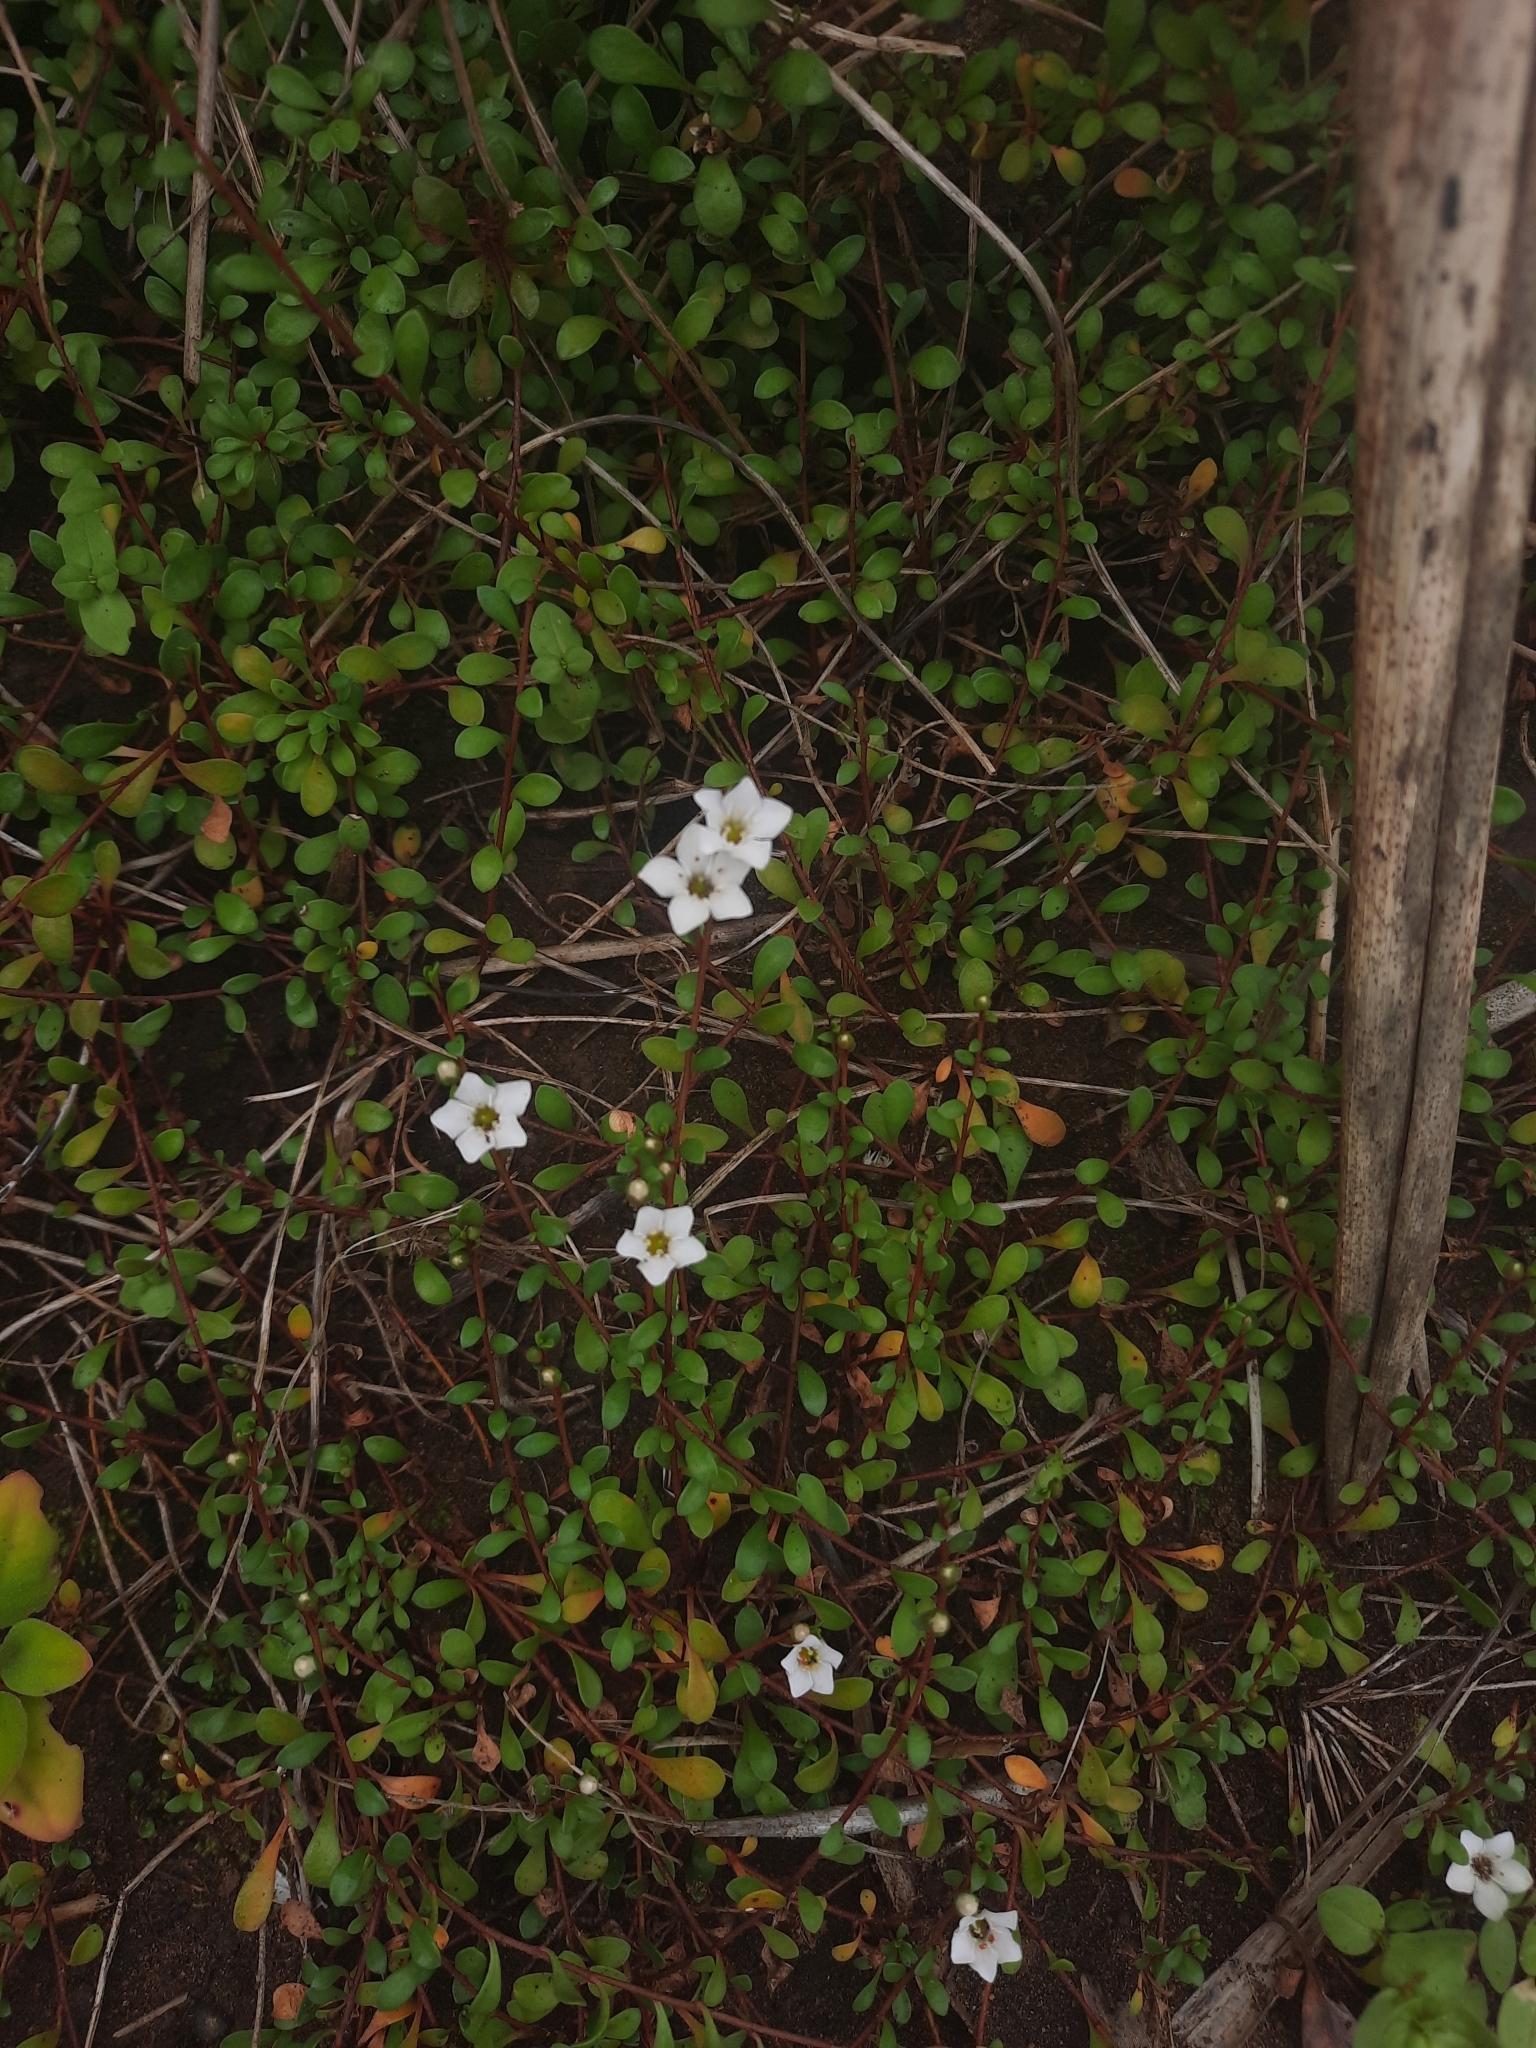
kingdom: Plantae
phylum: Tracheophyta
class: Magnoliopsida
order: Ericales
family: Primulaceae
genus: Samolus
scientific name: Samolus repens
